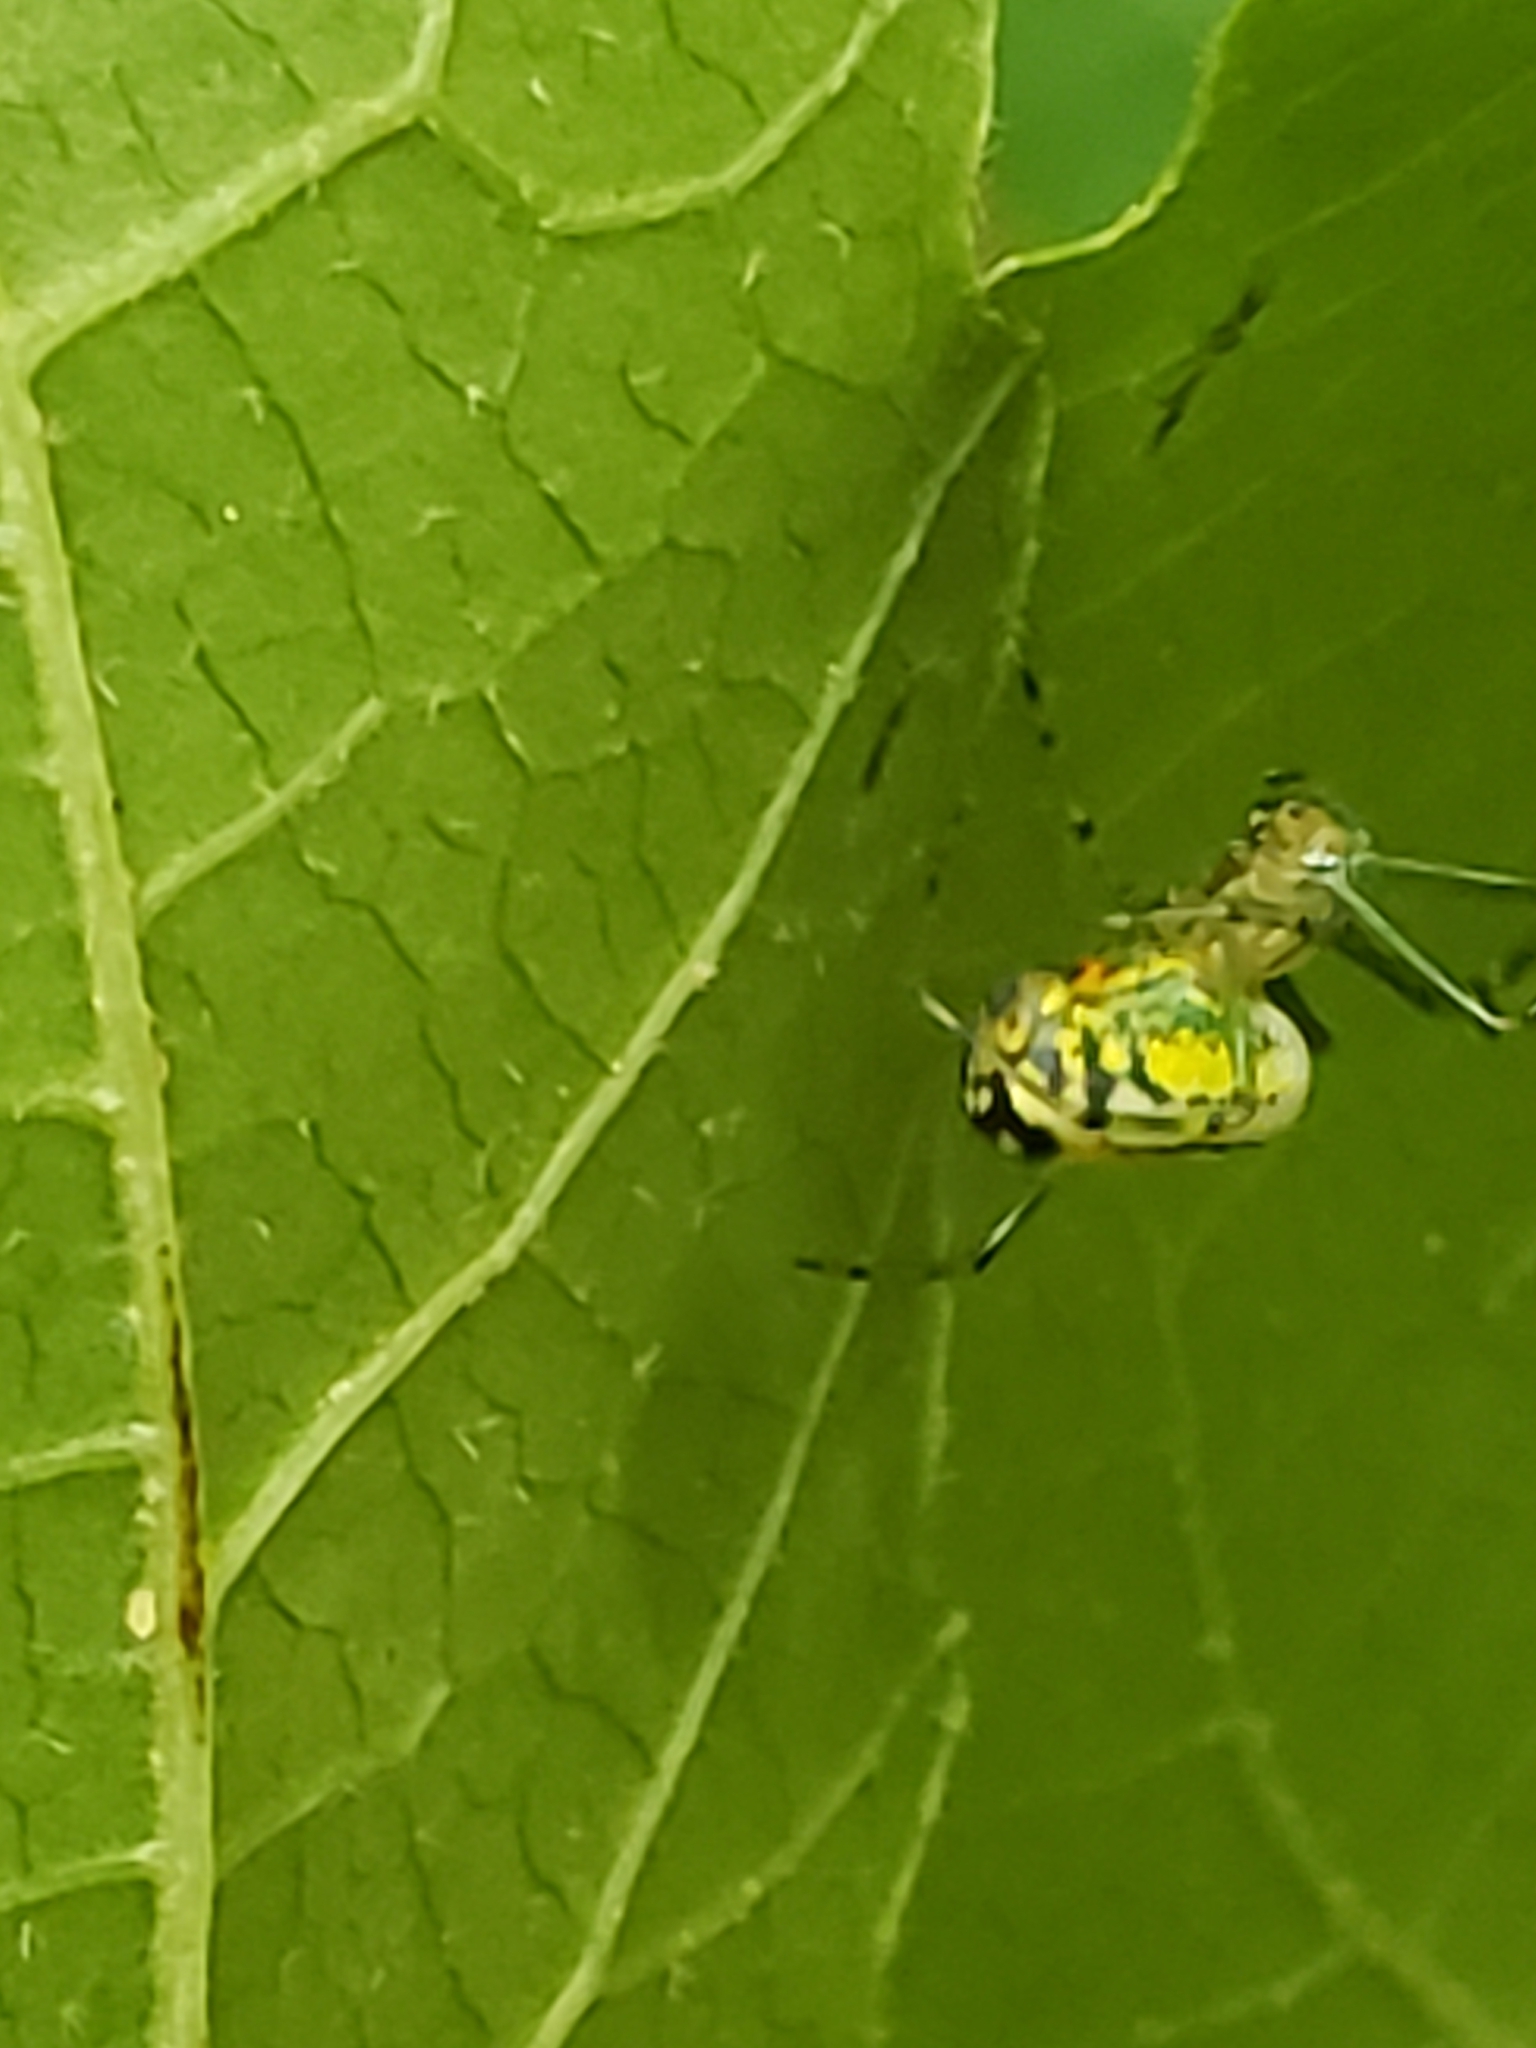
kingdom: Animalia
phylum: Arthropoda
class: Arachnida
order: Araneae
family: Tetragnathidae
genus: Leucauge
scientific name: Leucauge venusta
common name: Longjawed orb weavers
